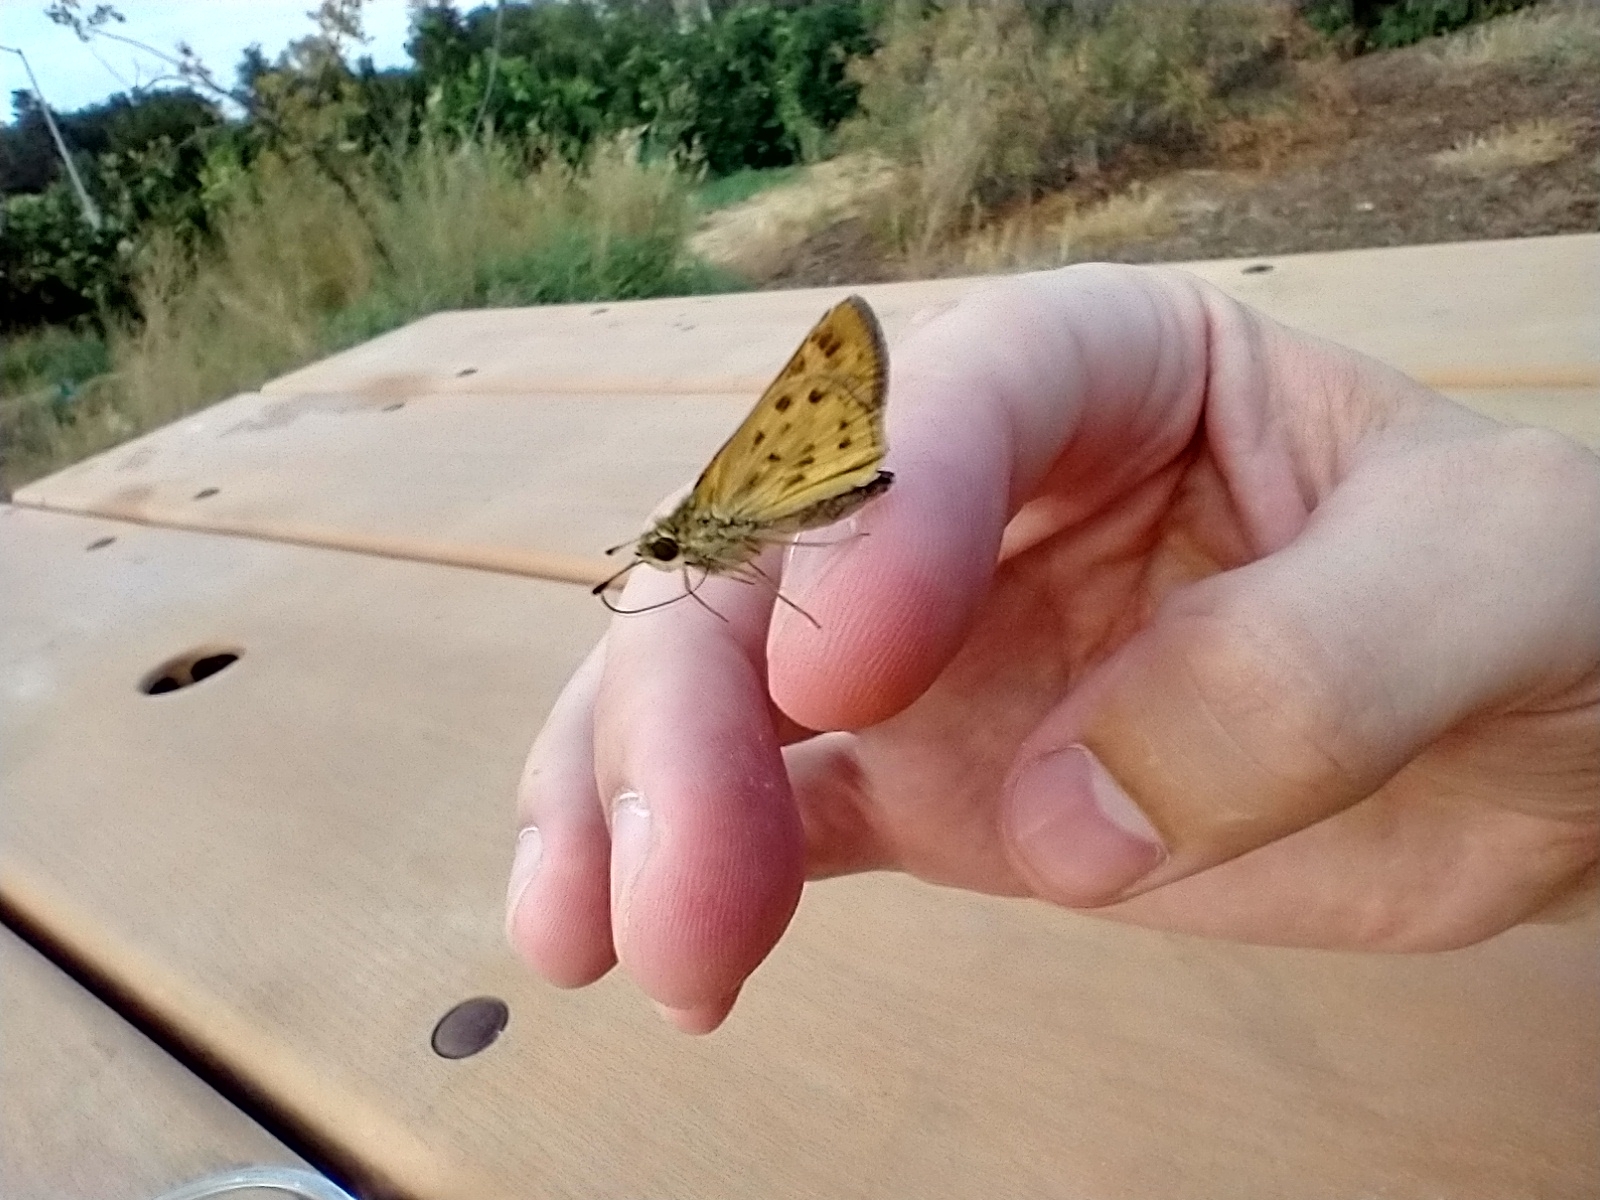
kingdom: Animalia
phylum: Arthropoda
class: Insecta
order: Lepidoptera
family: Hesperiidae
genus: Hylephila
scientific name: Hylephila phyleus
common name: Fiery skipper
